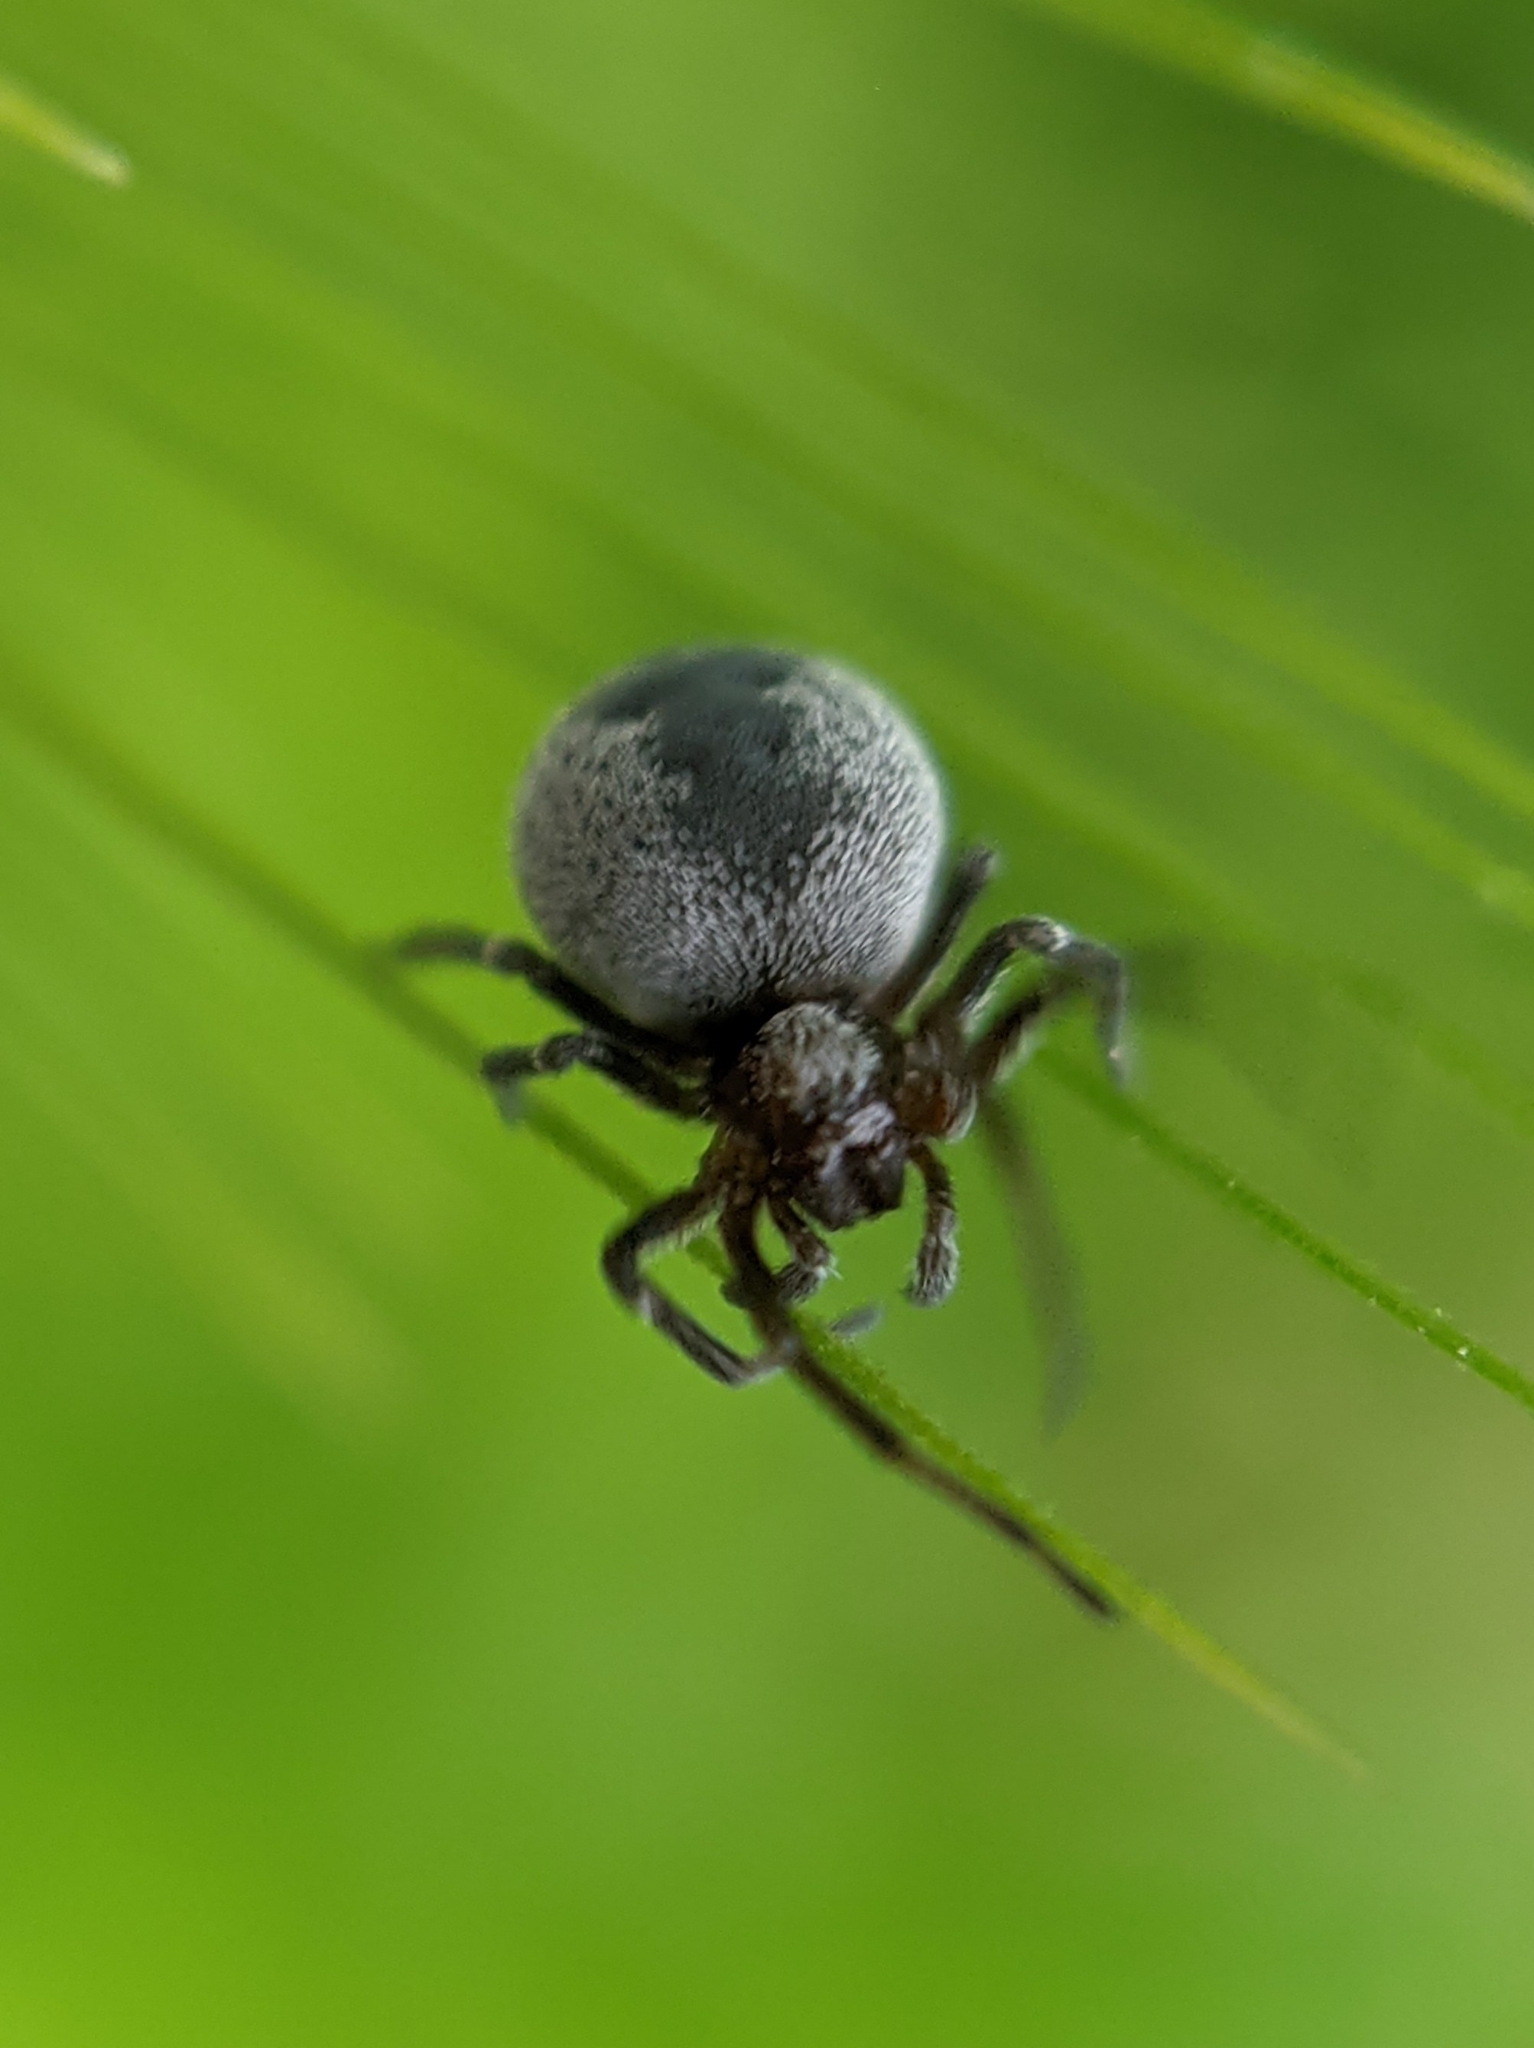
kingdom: Animalia
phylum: Arthropoda
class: Arachnida
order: Araneae
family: Dictynidae
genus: Brigittea
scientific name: Brigittea latens
